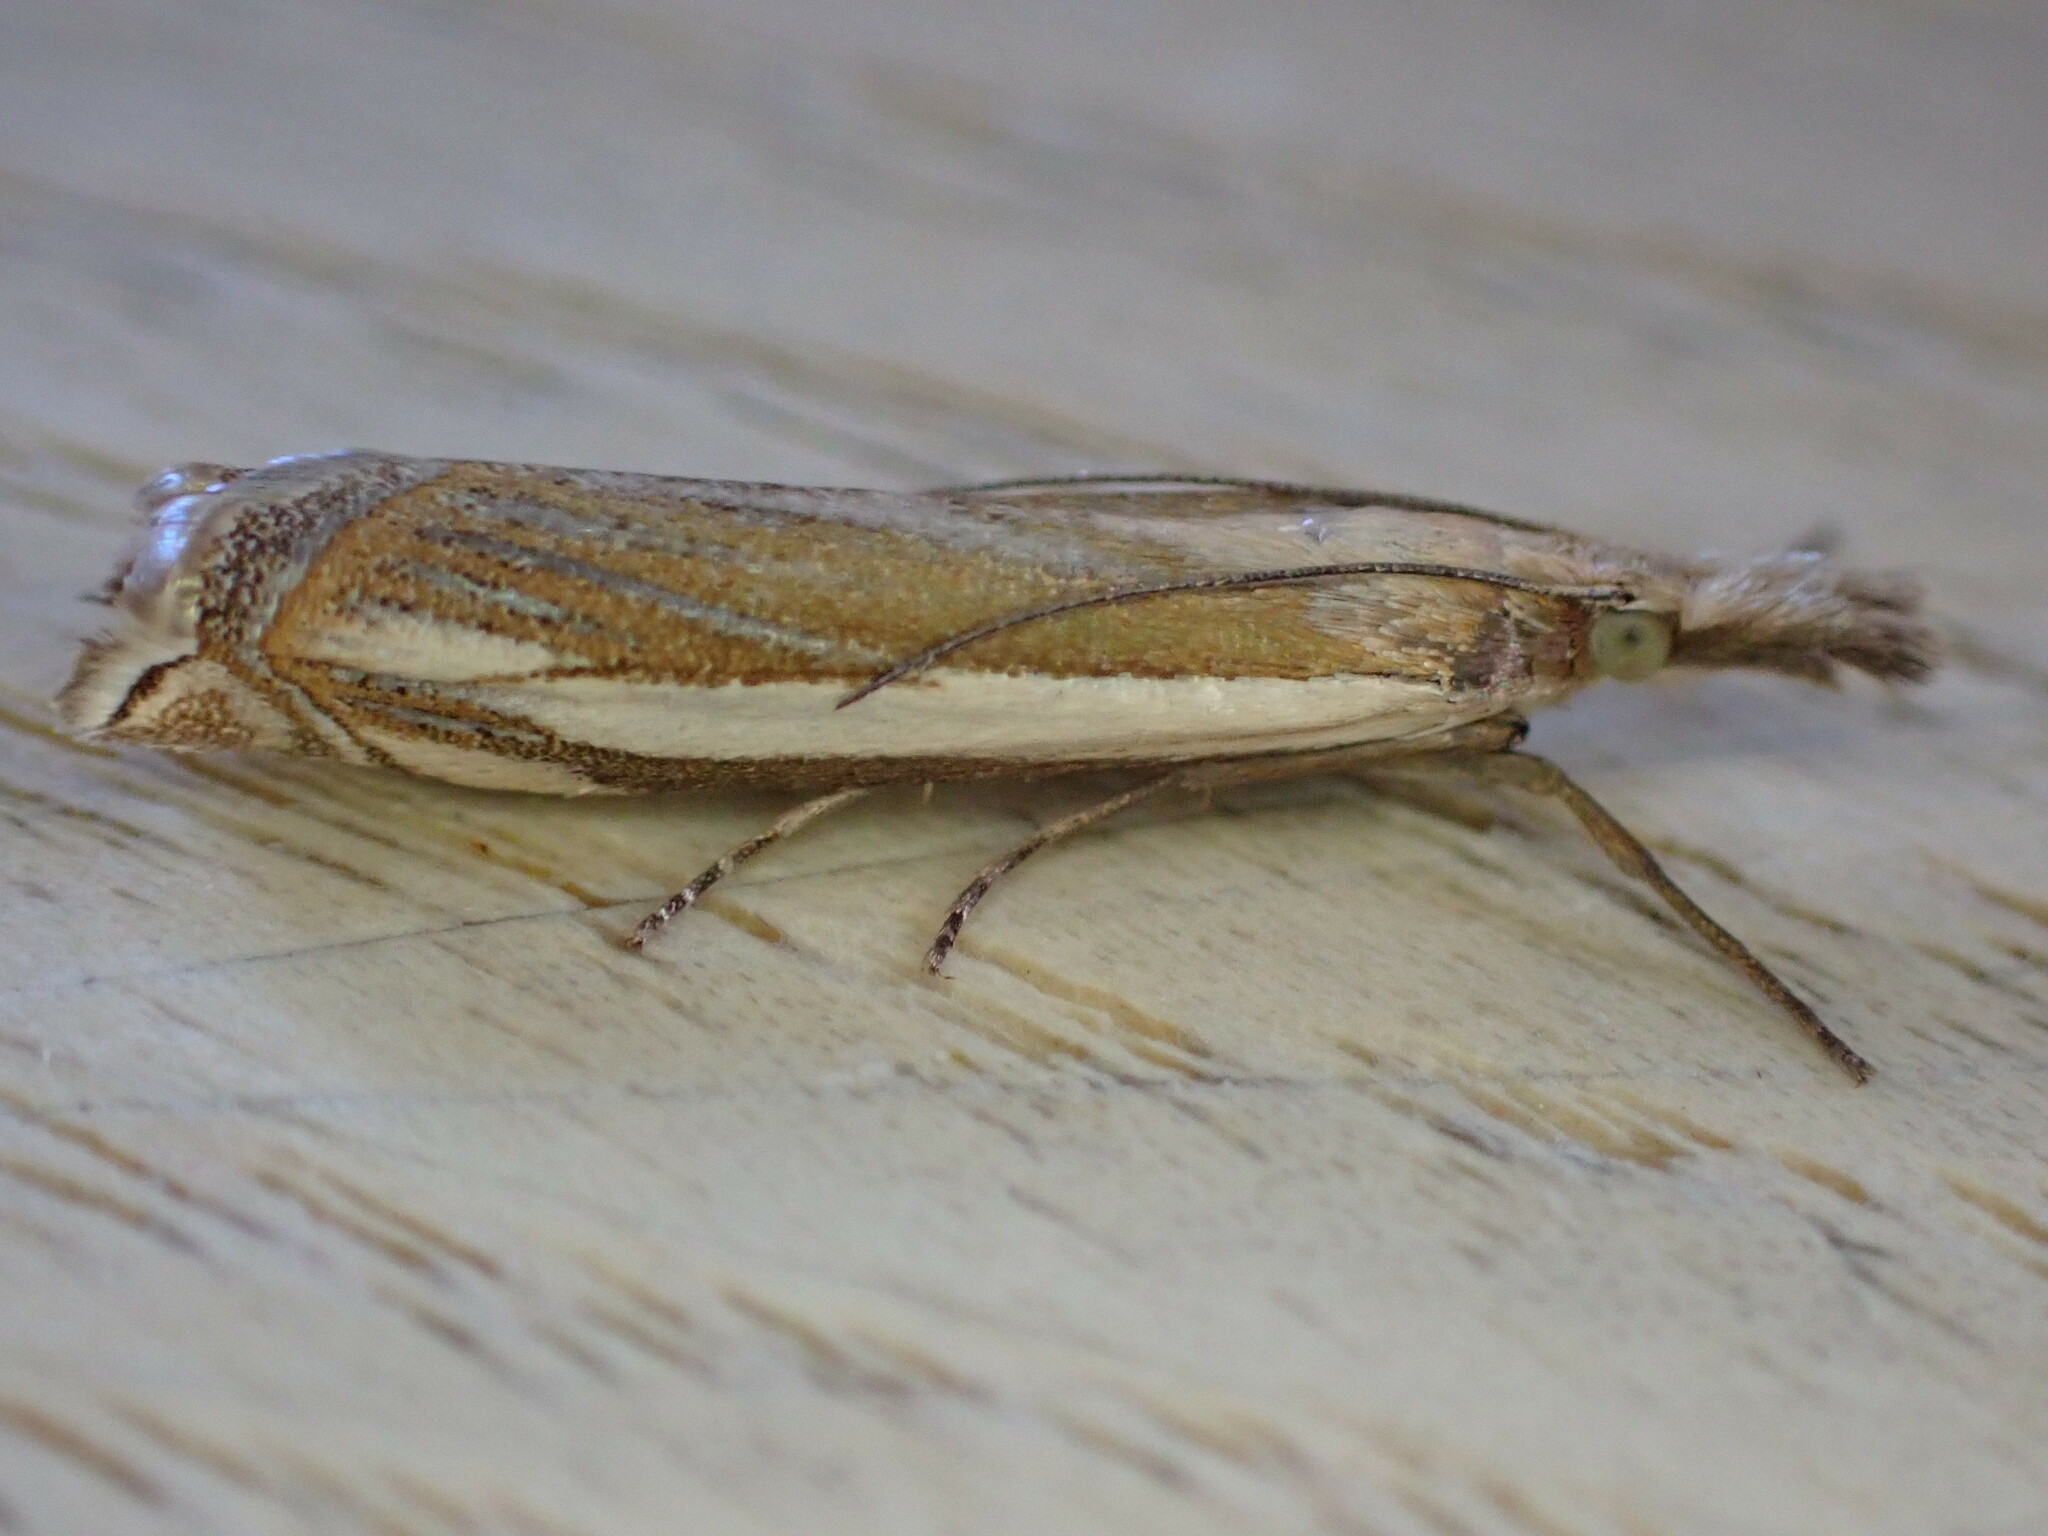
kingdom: Animalia
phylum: Arthropoda
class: Insecta
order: Lepidoptera
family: Crambidae
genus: Crambus
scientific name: Crambus pascuella
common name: Inlaid grass-veneer
